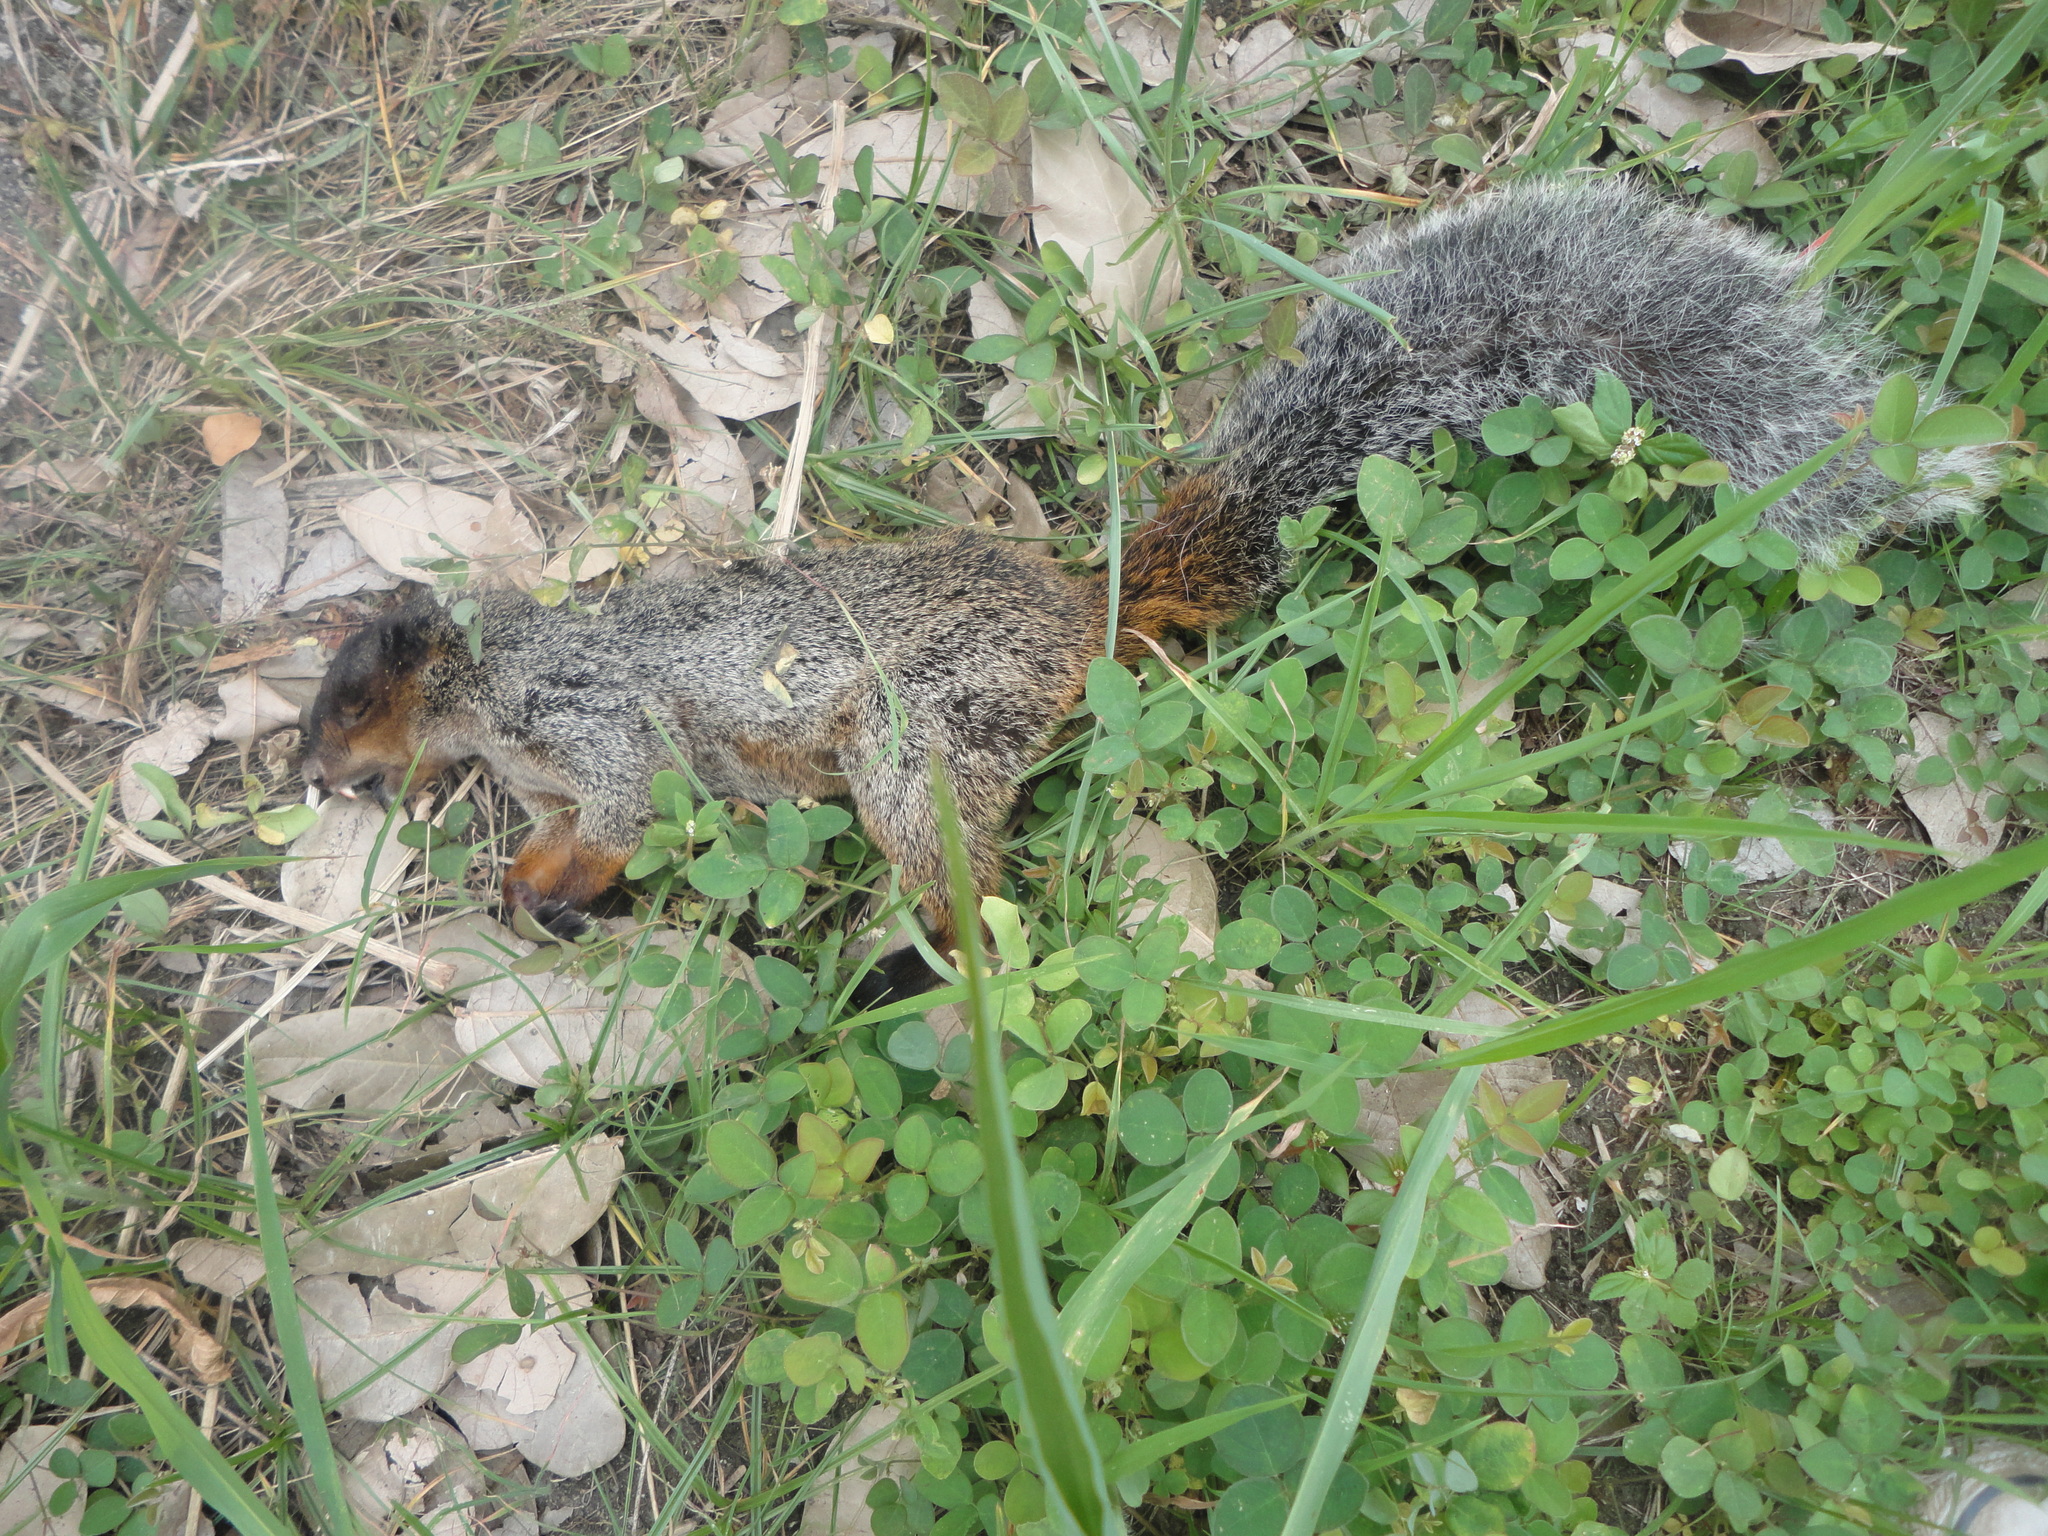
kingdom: Animalia
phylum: Chordata
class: Mammalia
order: Rodentia
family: Sciuridae
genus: Sciurus
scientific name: Sciurus stramineus
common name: Guayaquil squirrel
